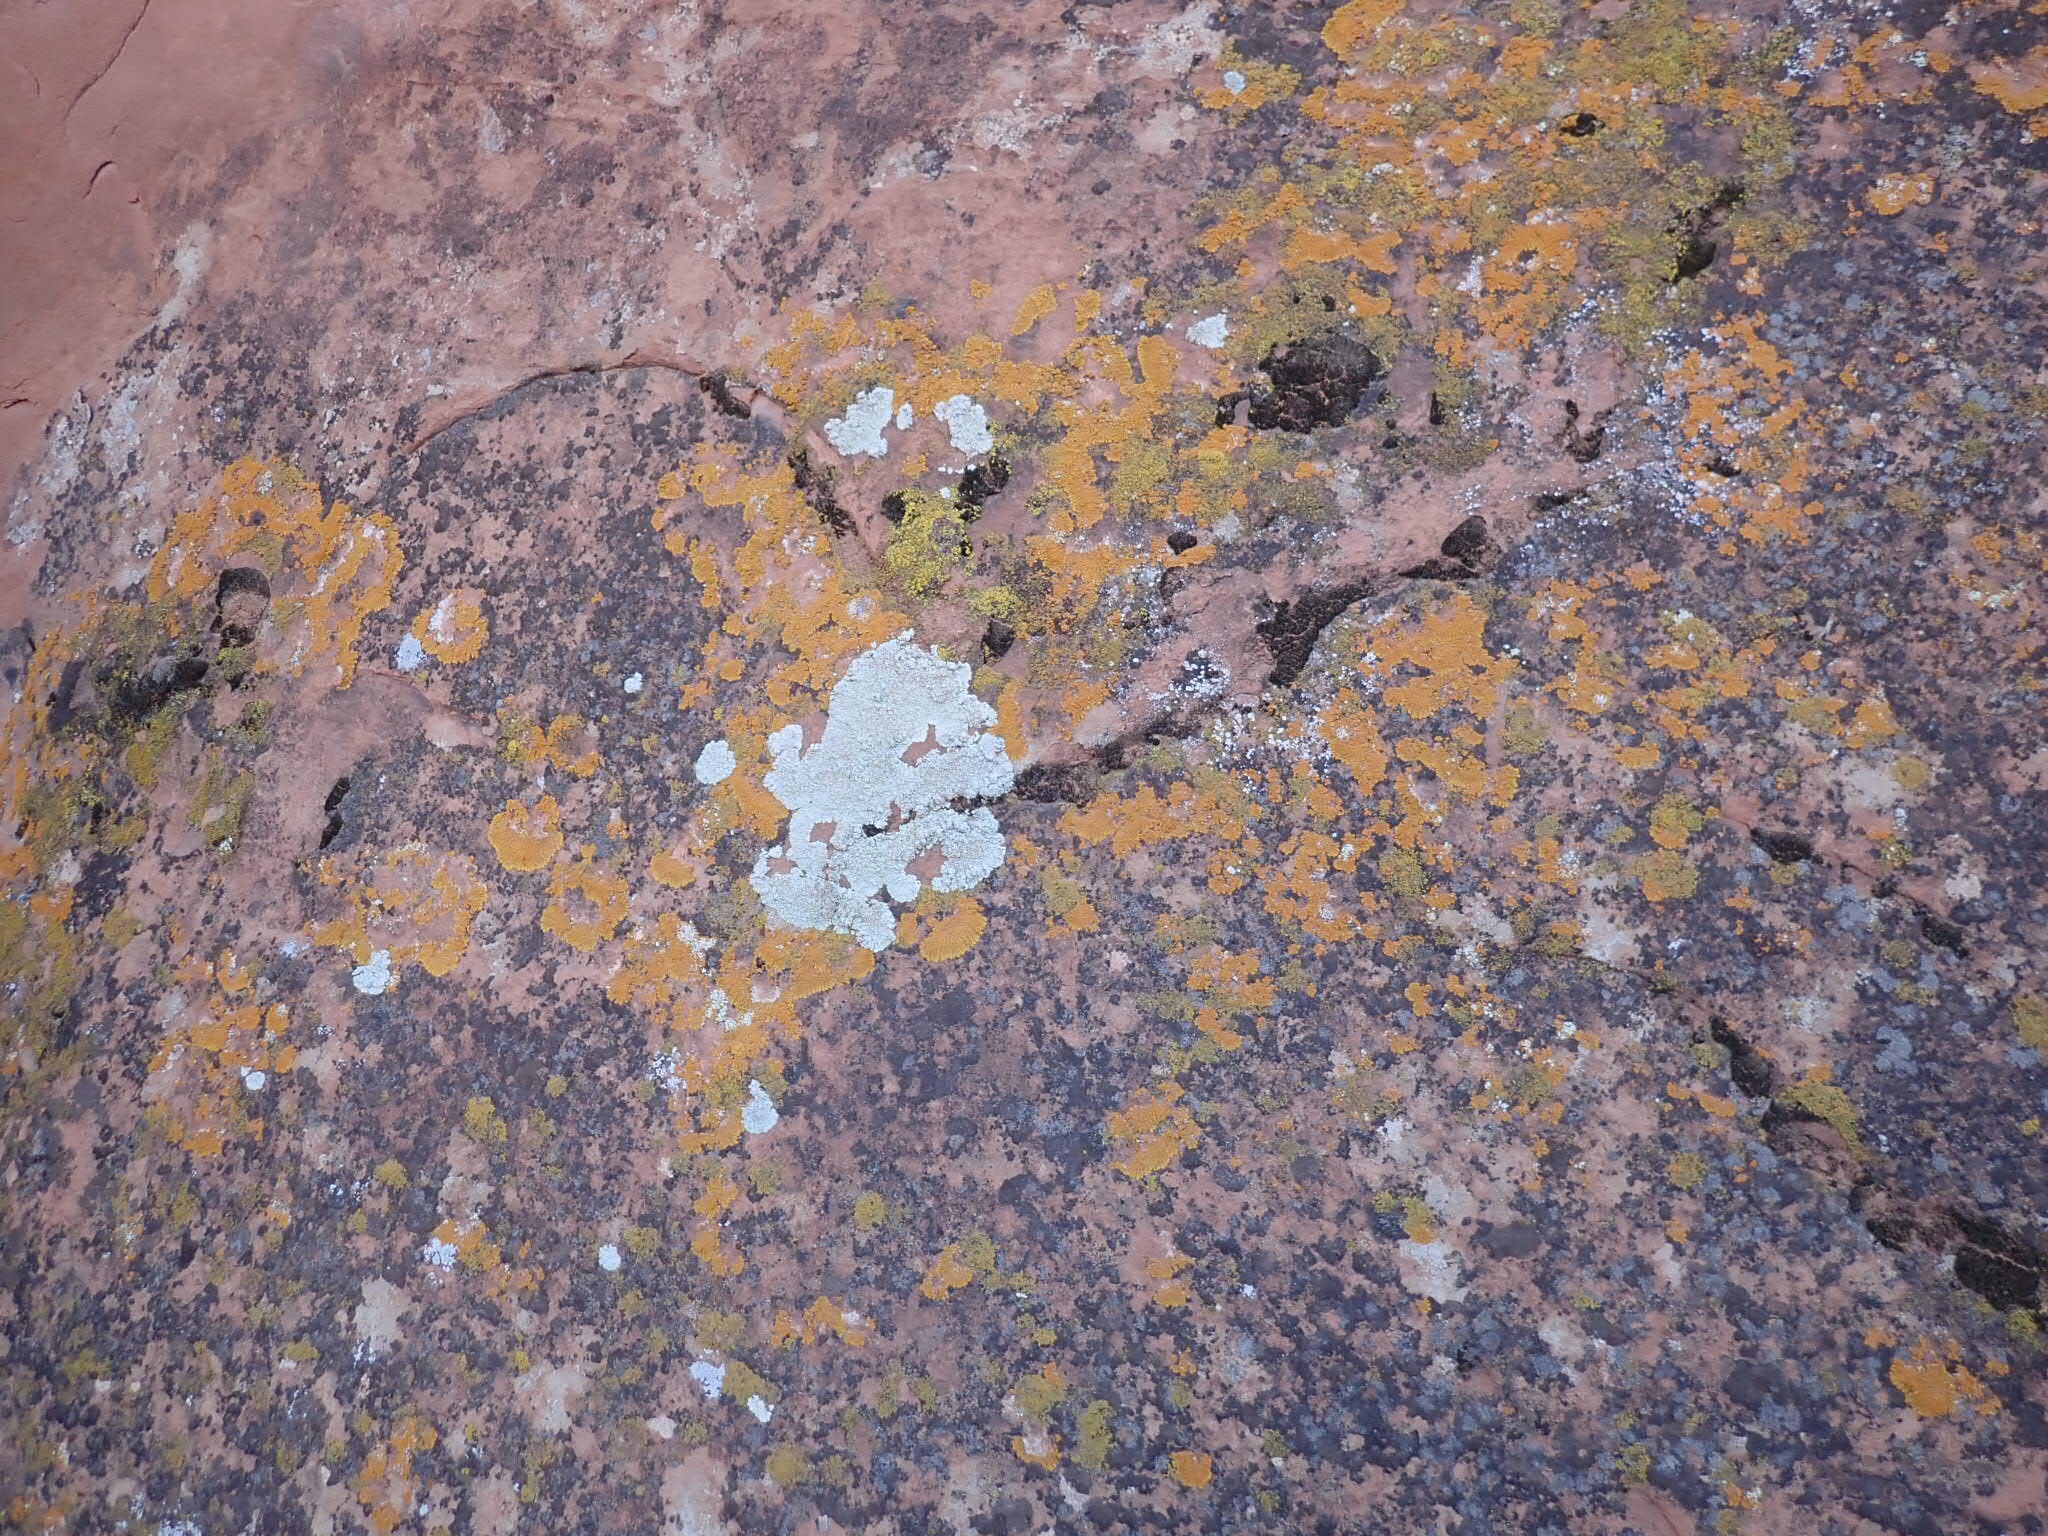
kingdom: Fungi
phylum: Ascomycota
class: Lecanoromycetes
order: Teloschistales
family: Teloschistaceae
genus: Golubkovia
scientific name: Golubkovia trachyphylla
